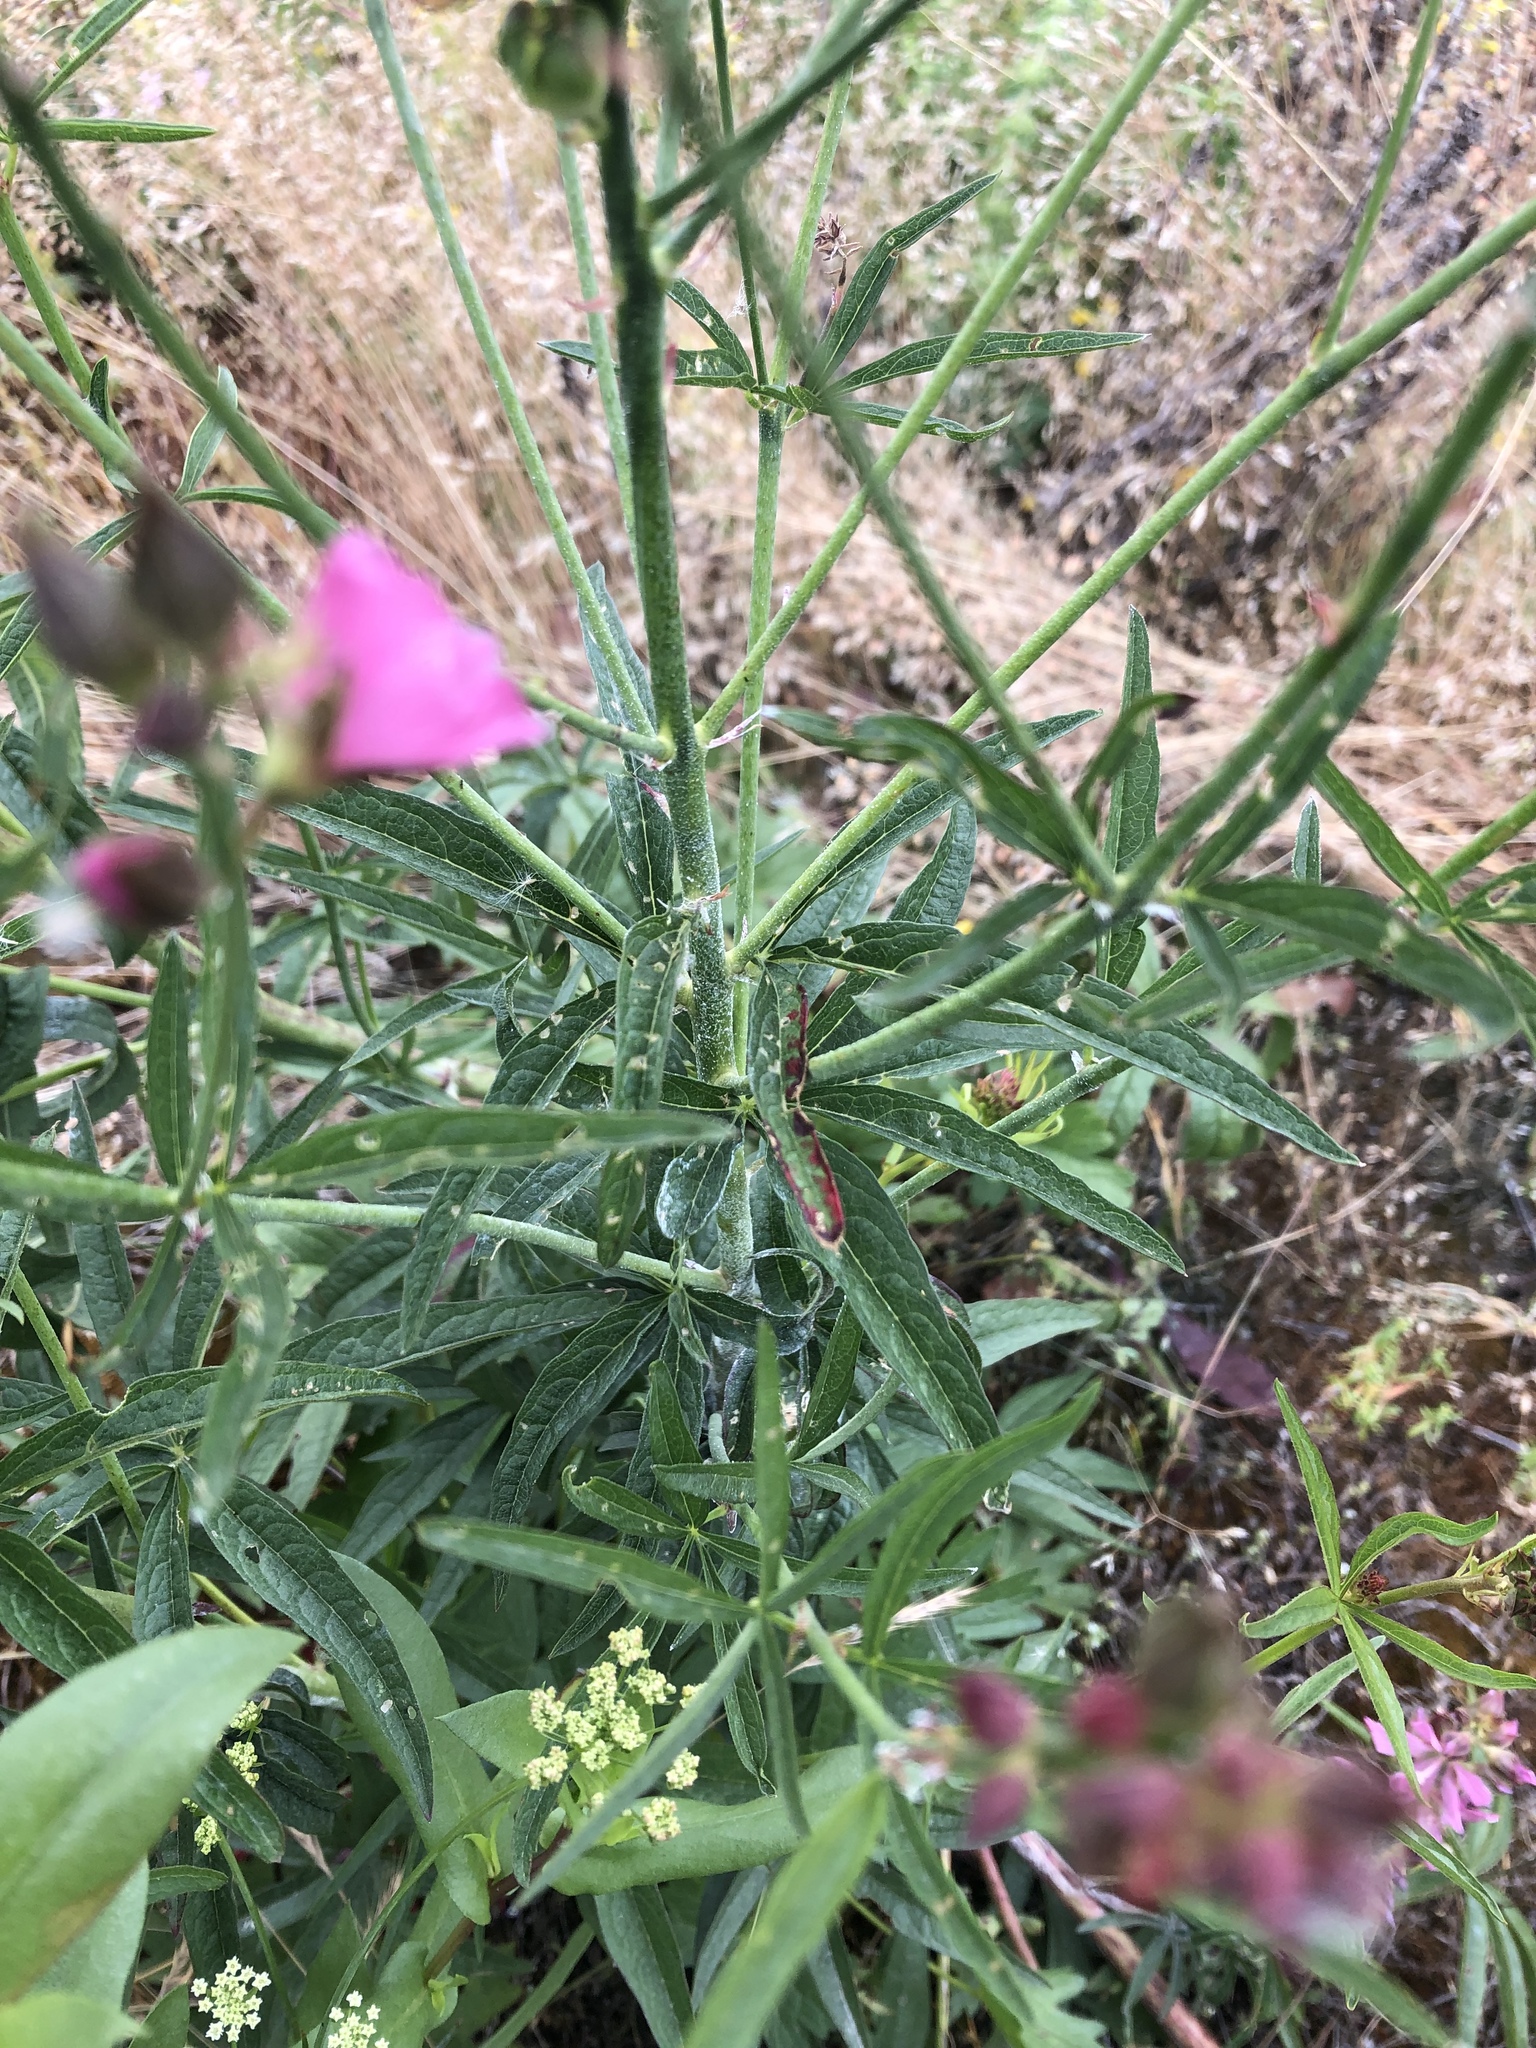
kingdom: Plantae
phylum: Tracheophyta
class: Magnoliopsida
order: Malvales
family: Malvaceae
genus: Sidalcea
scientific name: Sidalcea asprella
